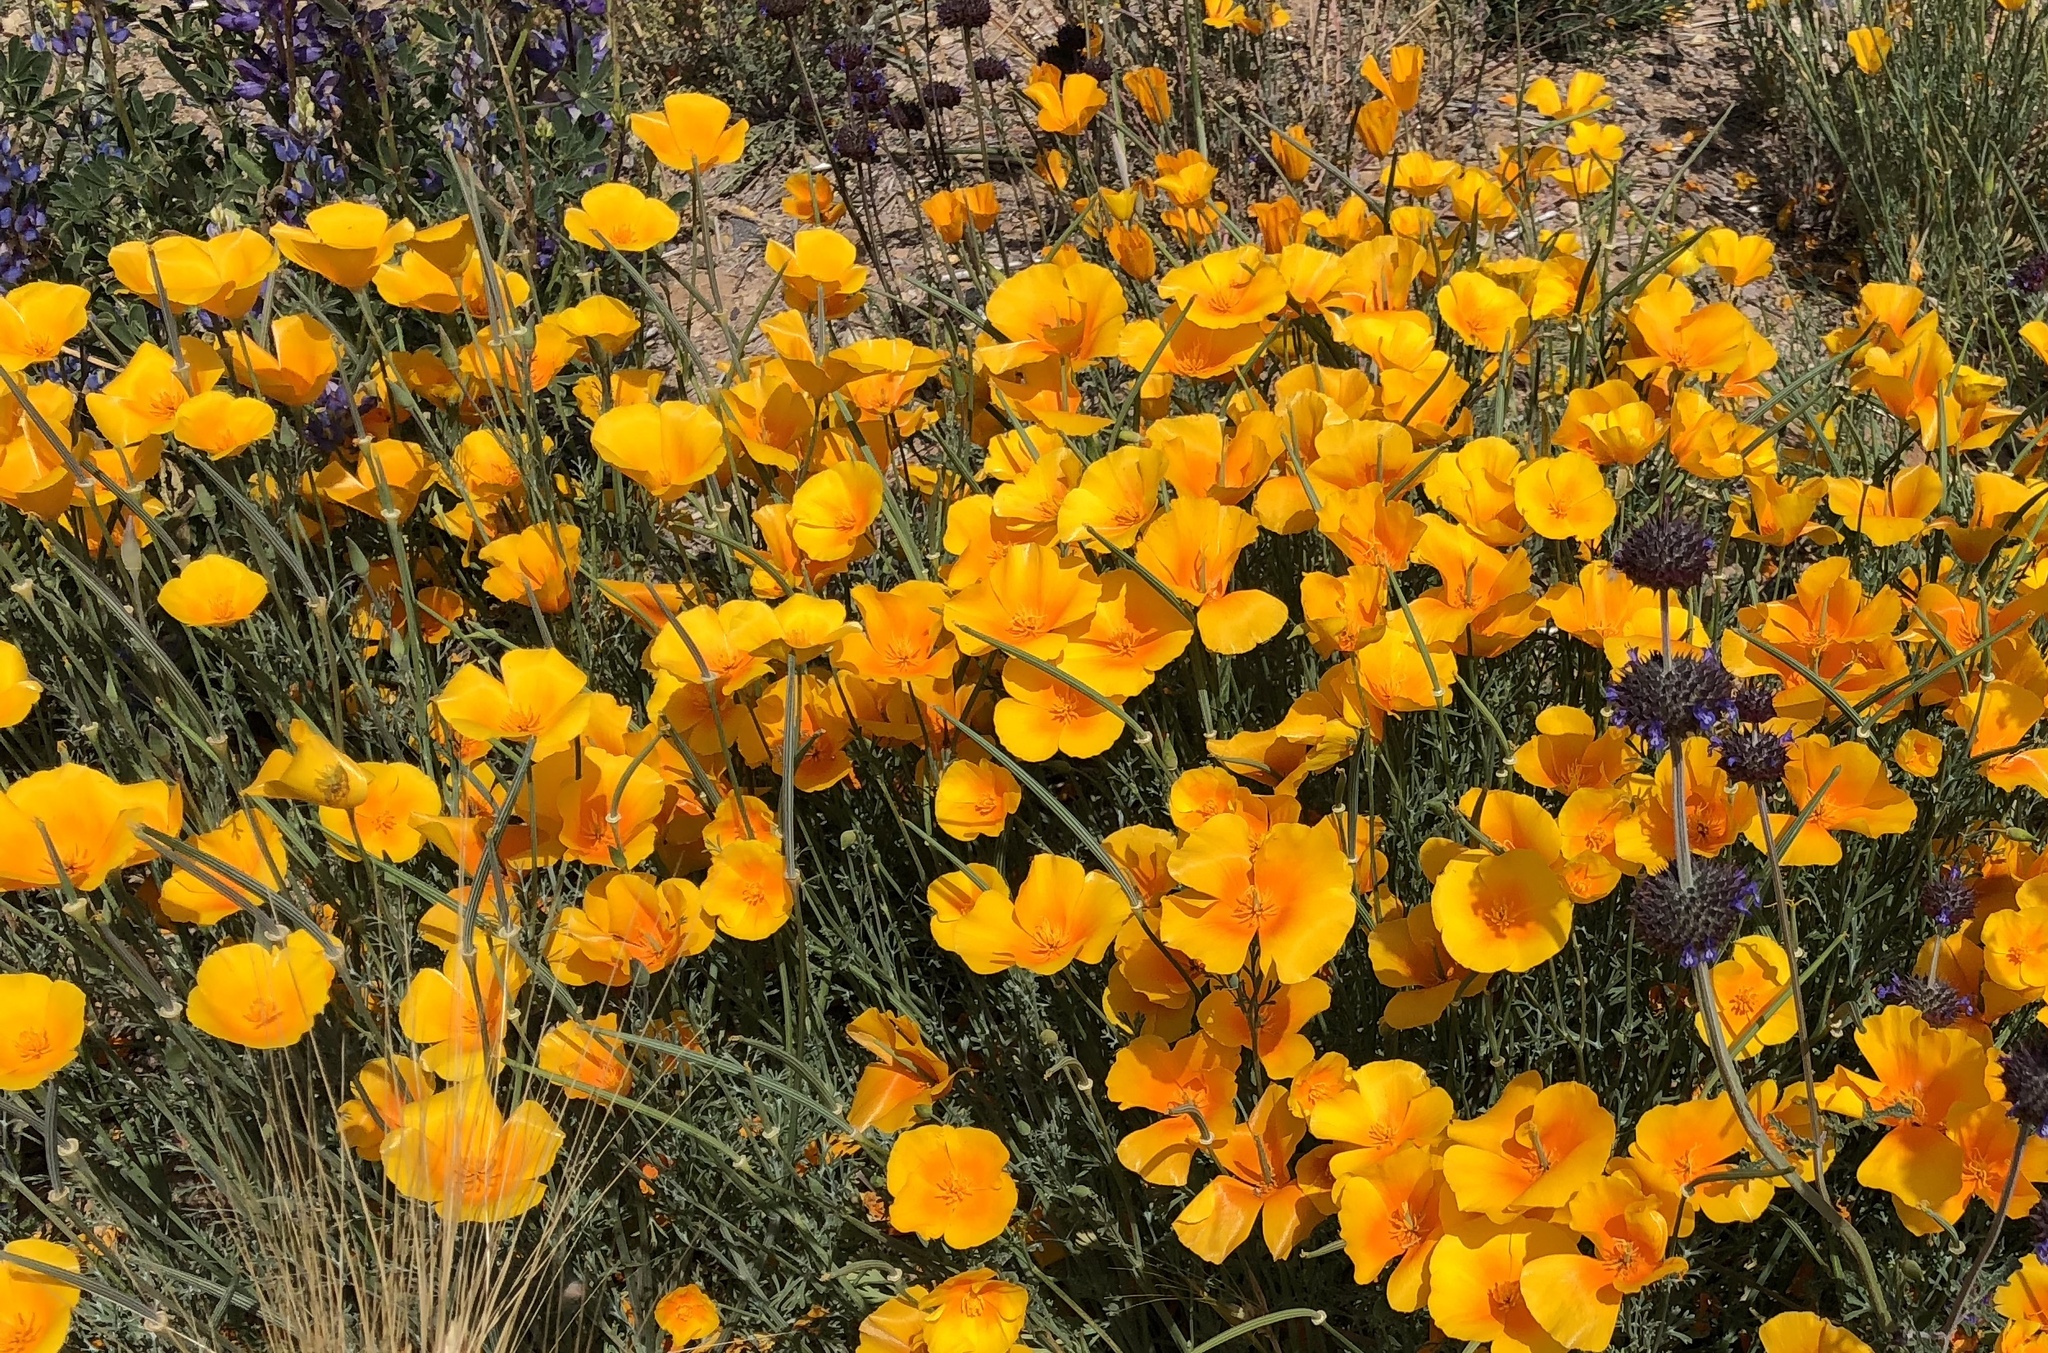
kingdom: Plantae
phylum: Tracheophyta
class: Magnoliopsida
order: Ranunculales
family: Papaveraceae
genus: Eschscholzia
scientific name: Eschscholzia californica
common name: California poppy
